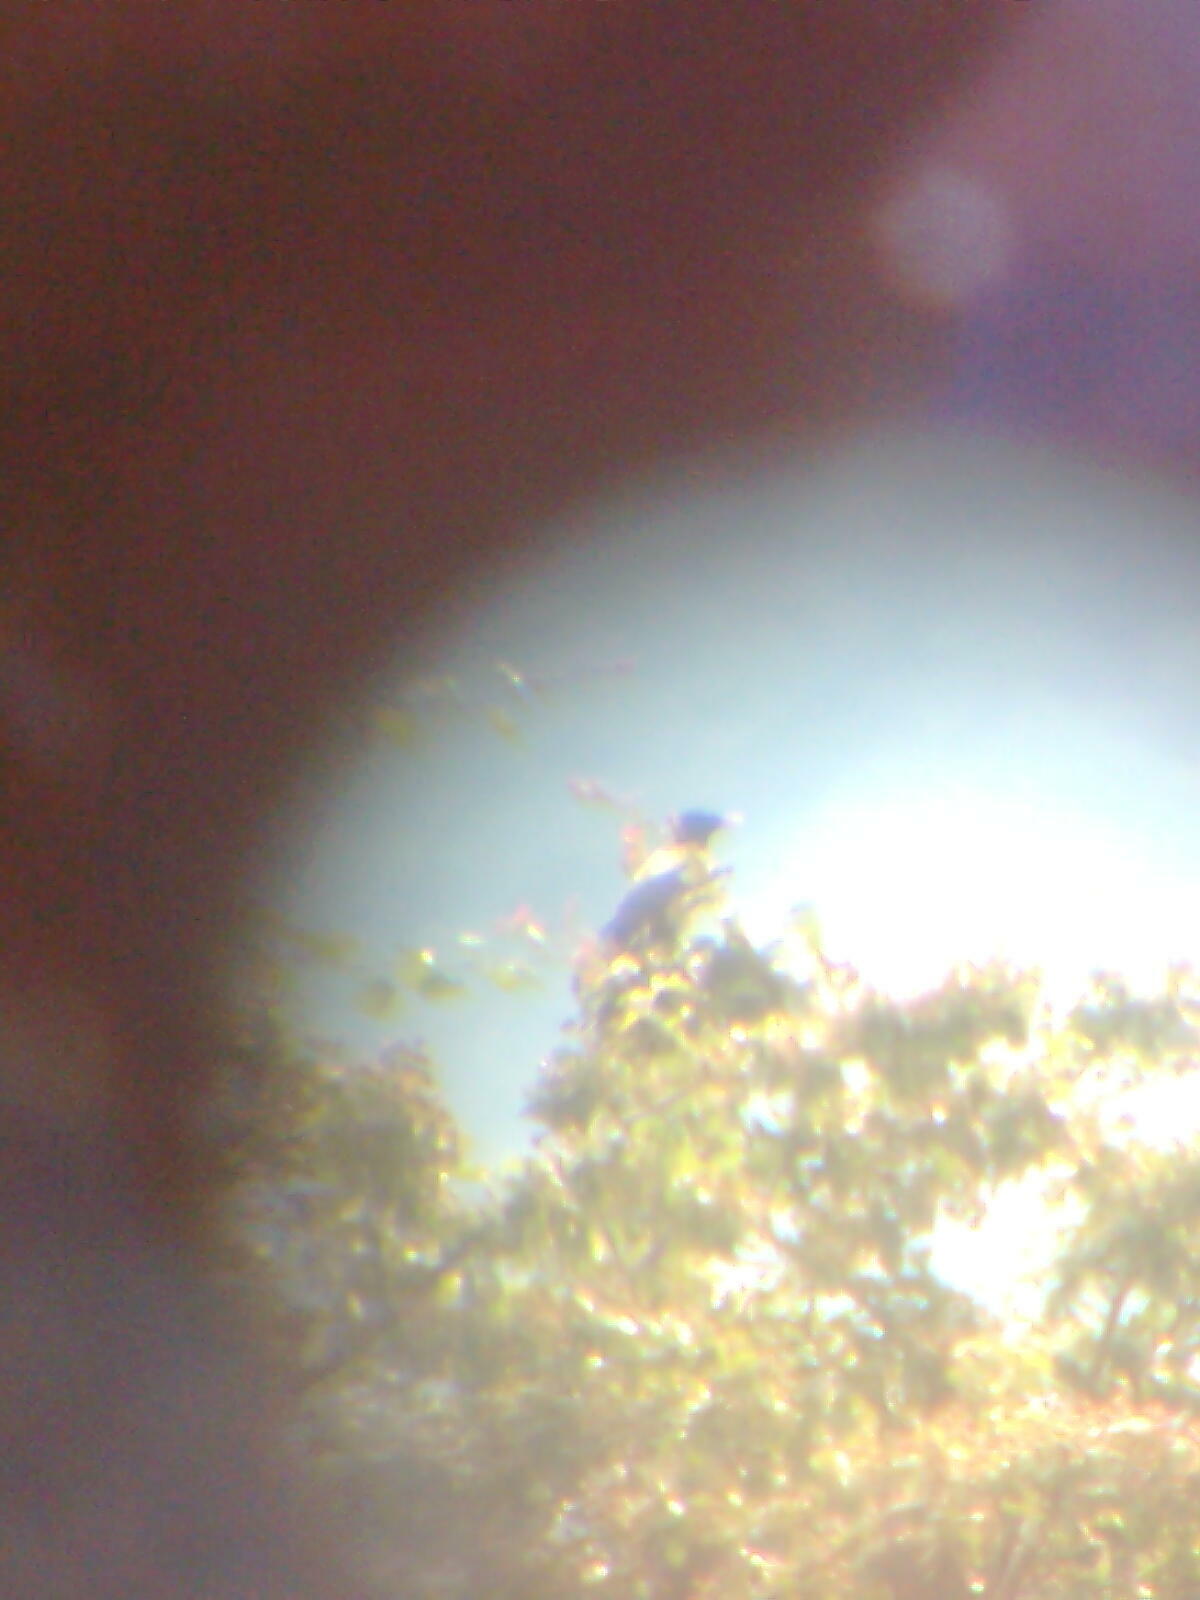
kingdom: Animalia
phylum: Chordata
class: Aves
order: Passeriformes
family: Sturnidae
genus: Pastor
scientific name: Pastor roseus
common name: Rosy starling
